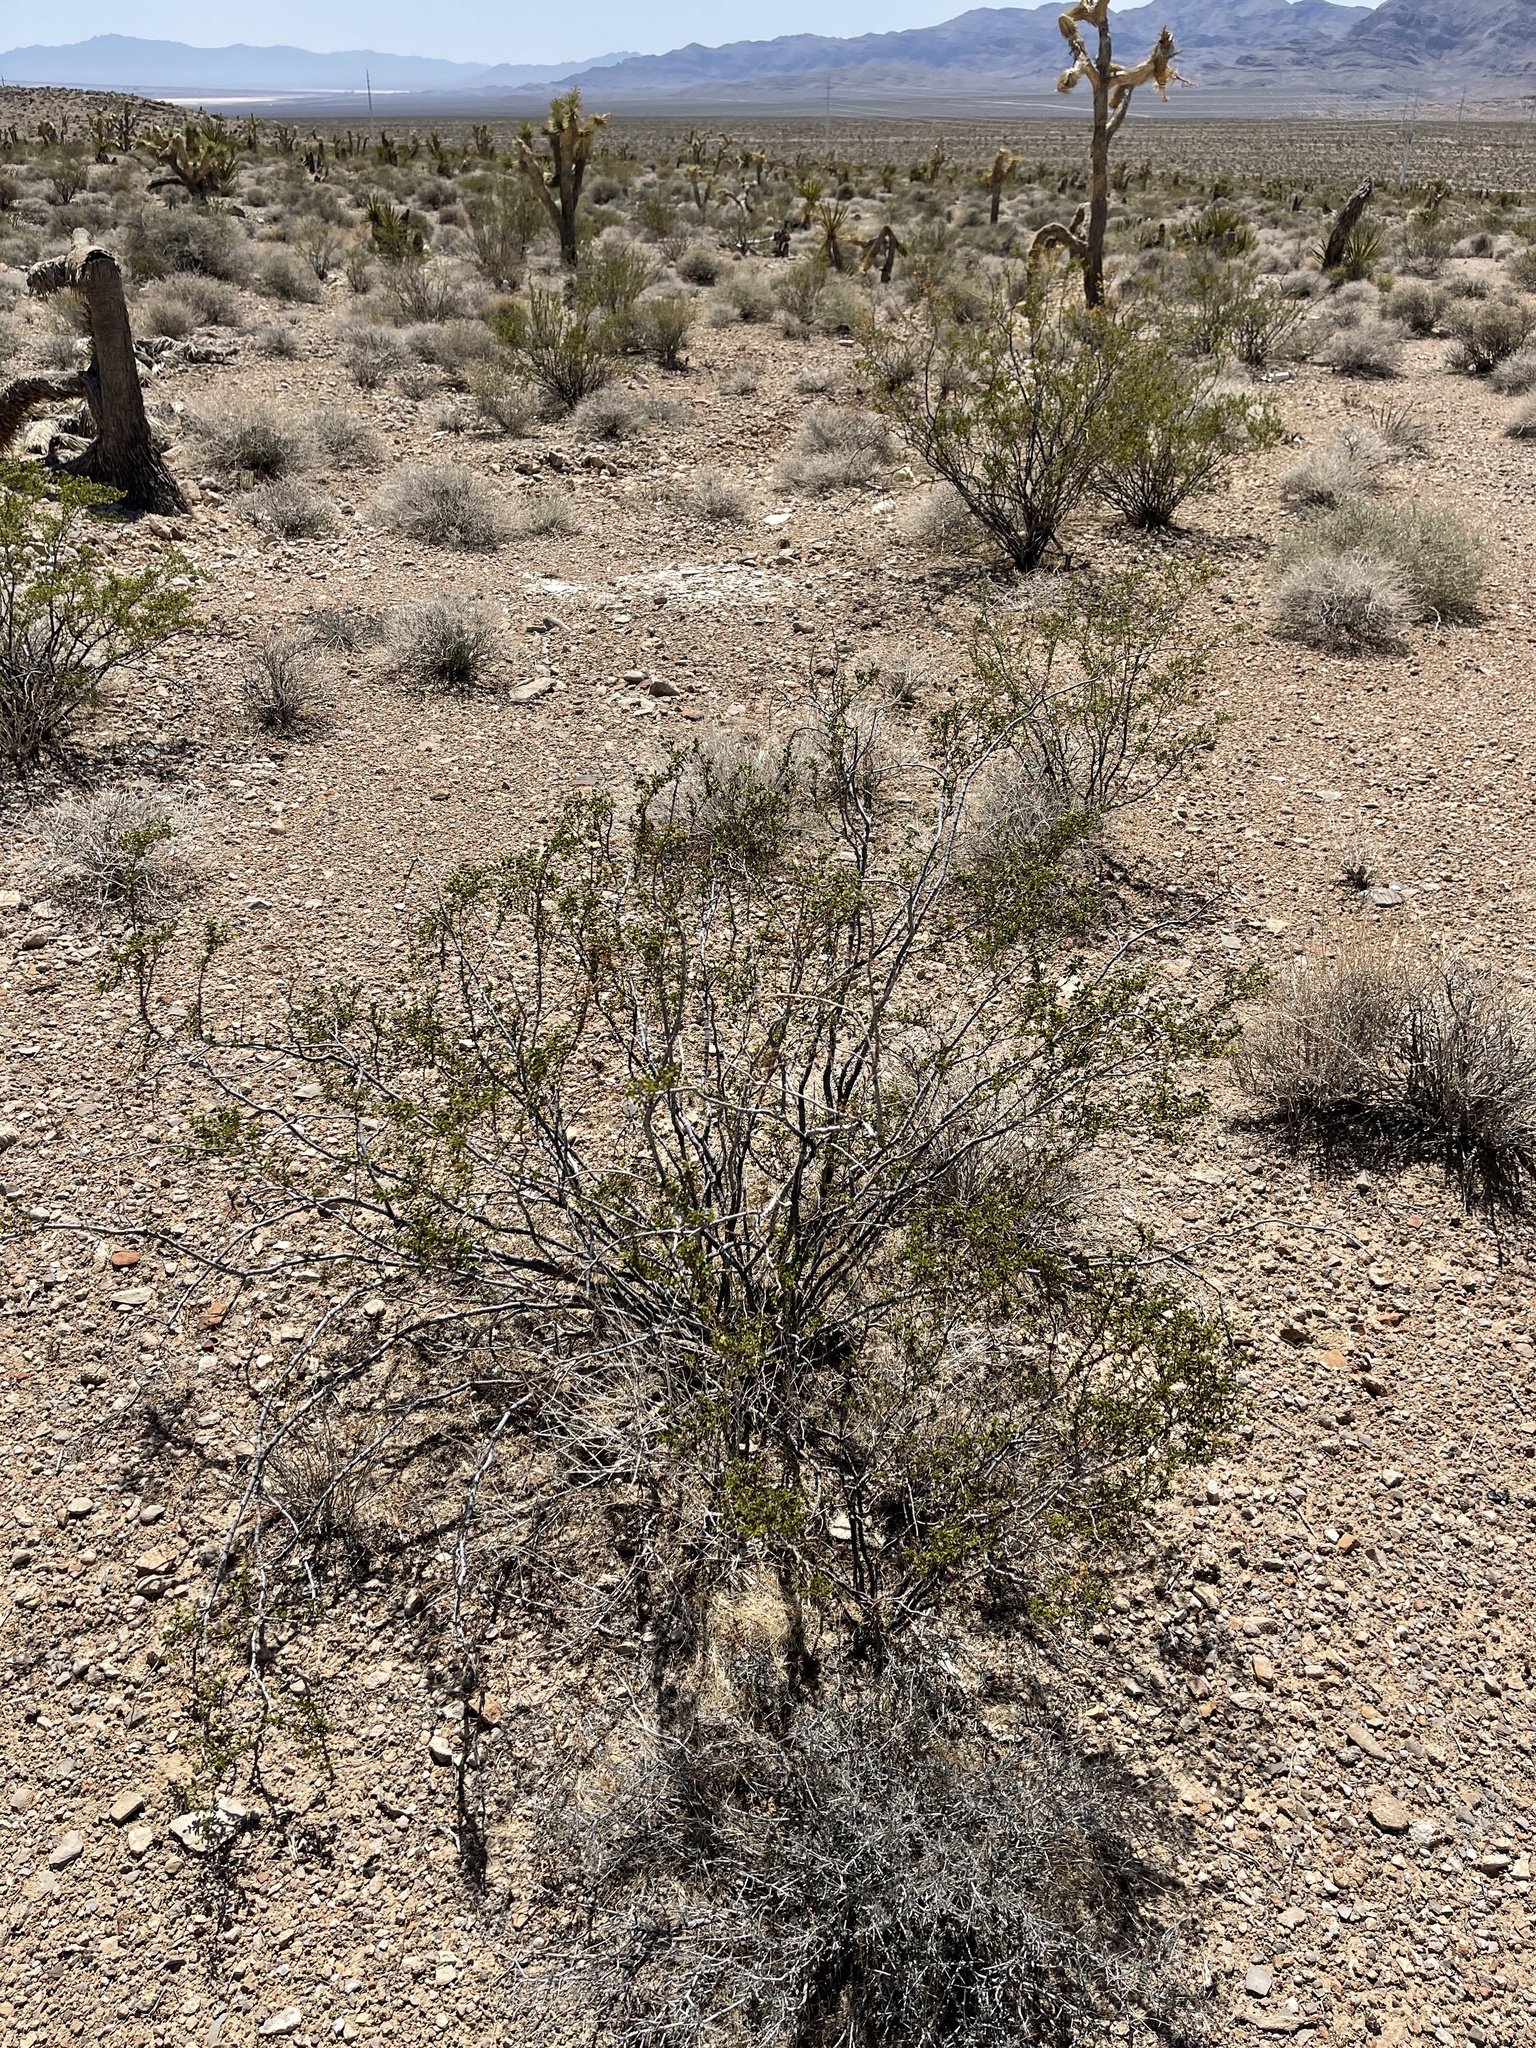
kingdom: Plantae
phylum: Tracheophyta
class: Magnoliopsida
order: Zygophyllales
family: Zygophyllaceae
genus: Larrea
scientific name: Larrea tridentata
